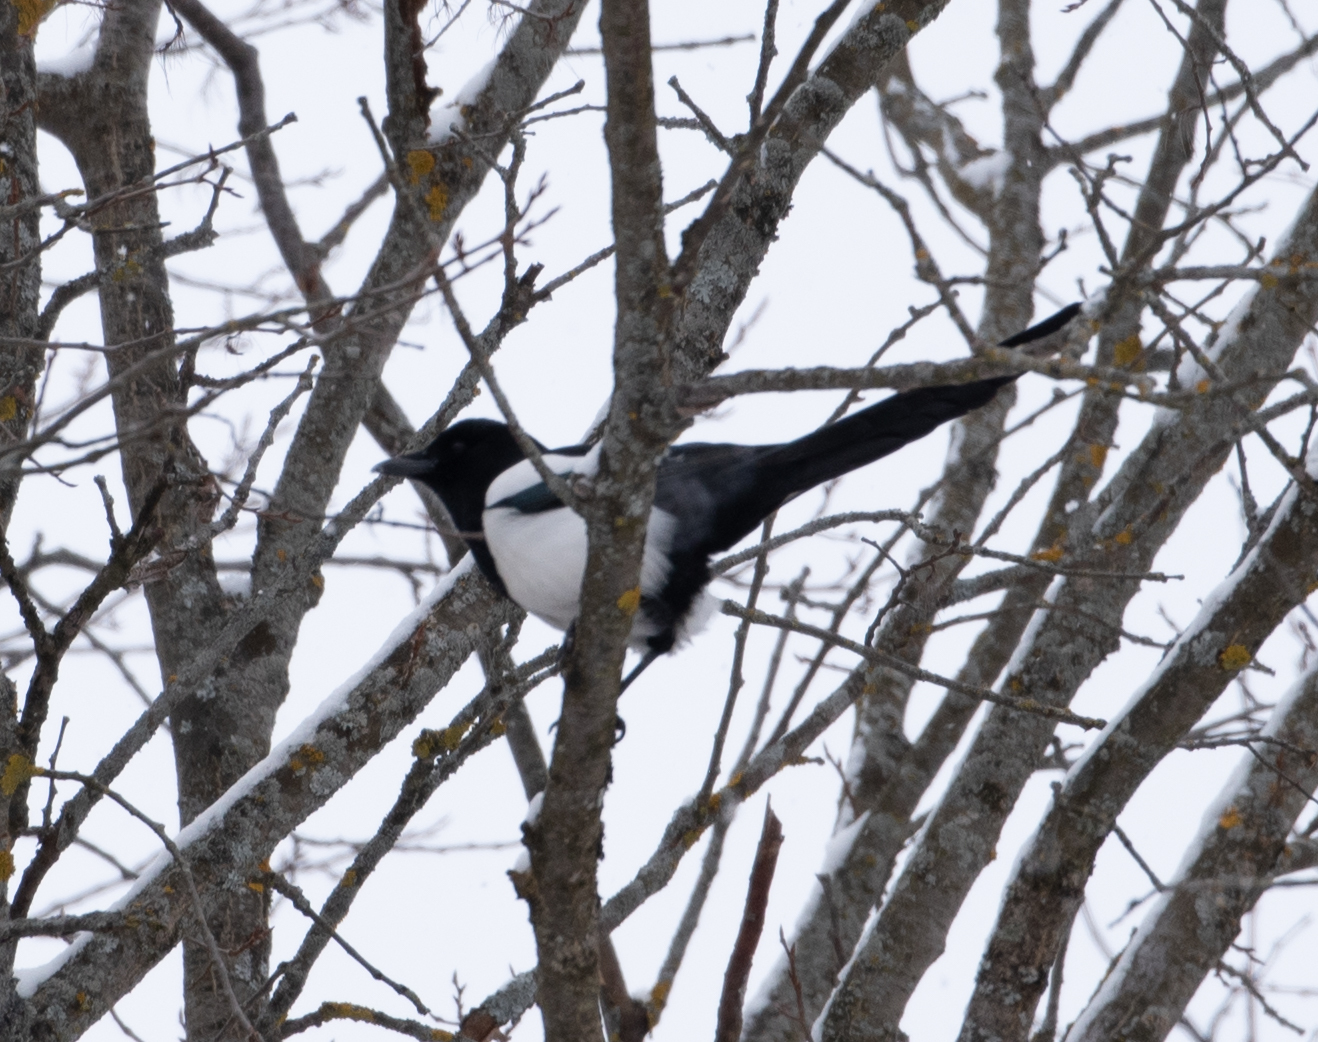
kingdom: Animalia
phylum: Chordata
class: Aves
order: Passeriformes
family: Corvidae
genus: Pica
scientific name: Pica pica
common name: Eurasian magpie
